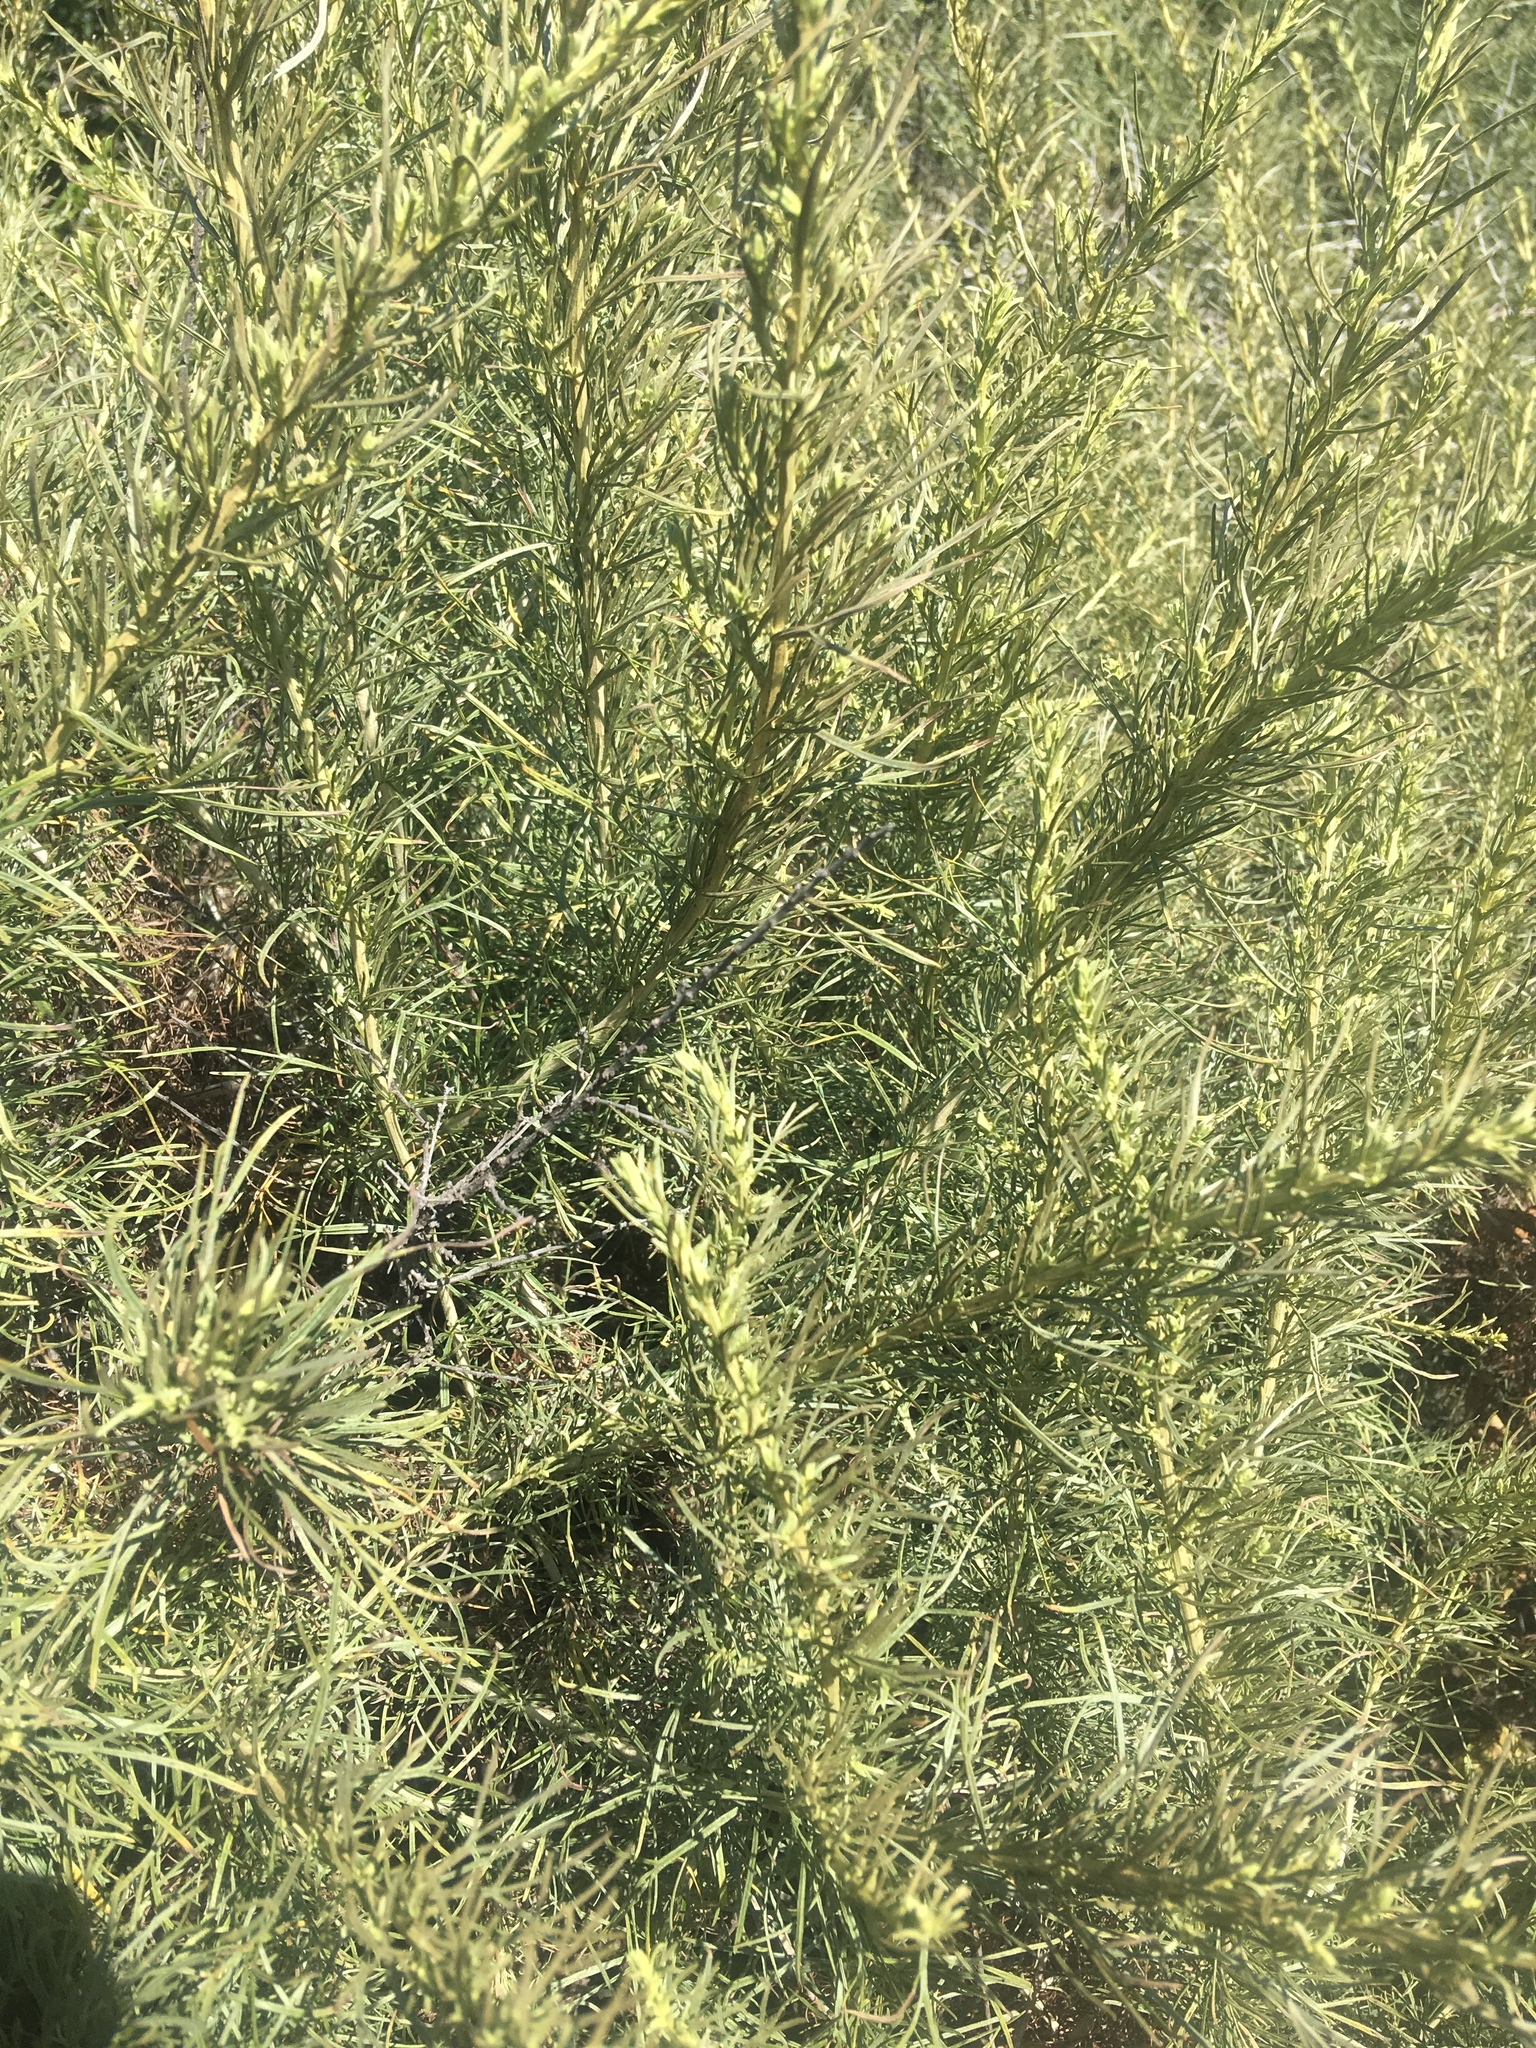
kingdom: Plantae
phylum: Tracheophyta
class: Magnoliopsida
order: Asterales
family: Asteraceae
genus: Artemisia
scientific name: Artemisia californica
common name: California sagebrush
